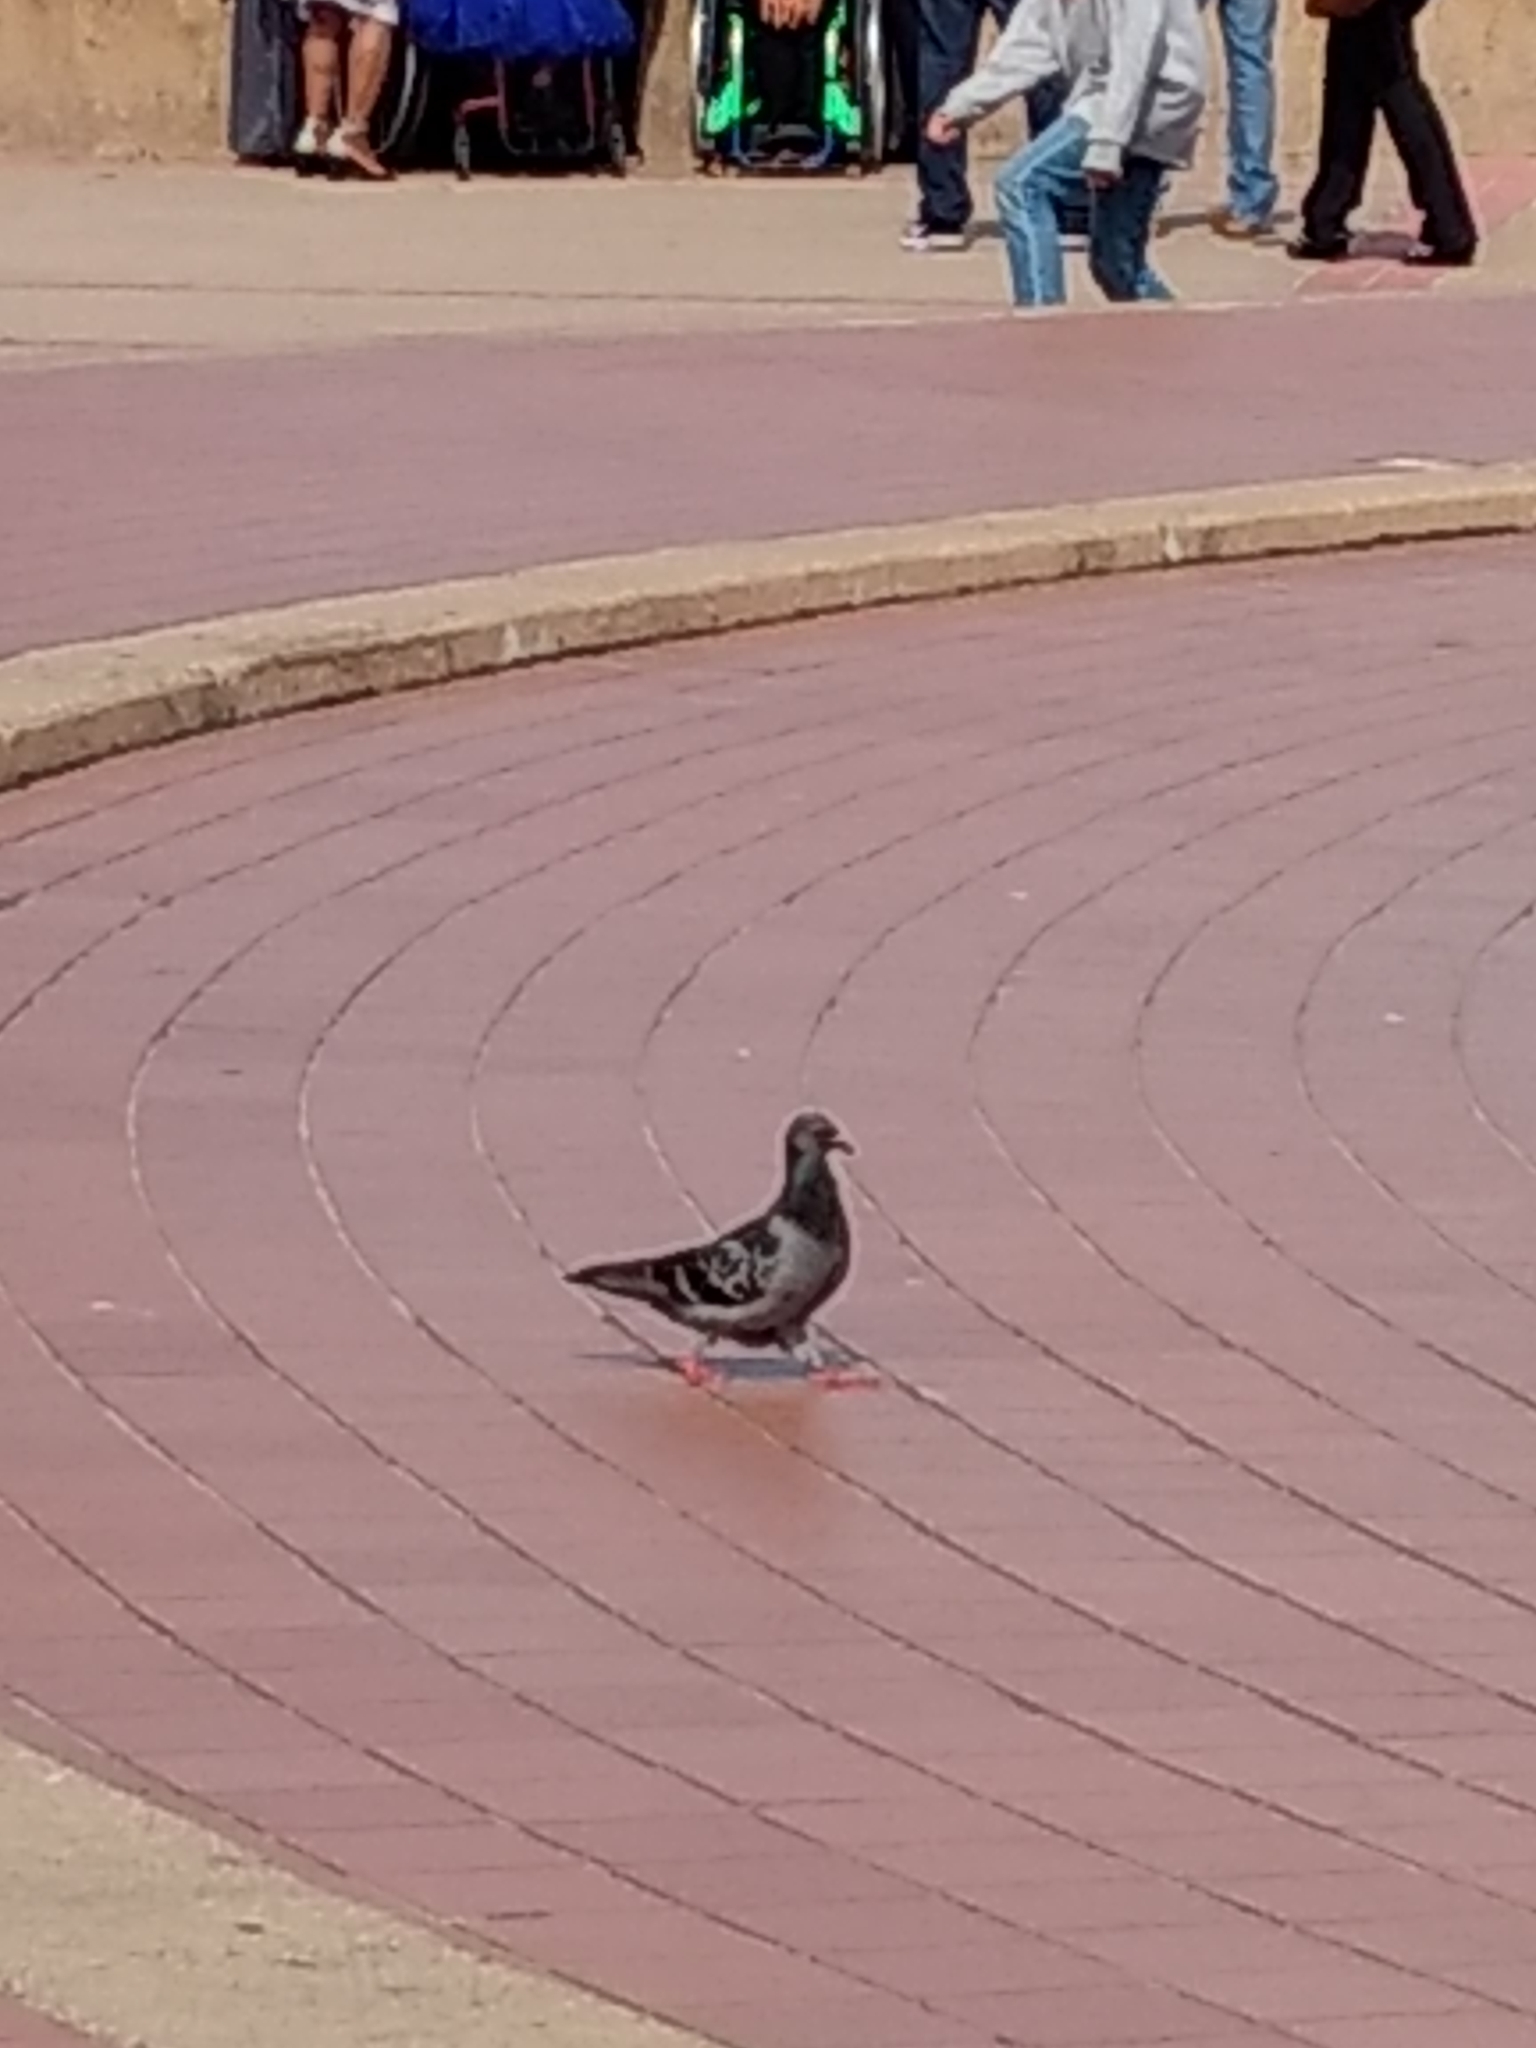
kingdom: Animalia
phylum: Chordata
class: Aves
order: Columbiformes
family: Columbidae
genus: Columba
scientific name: Columba livia
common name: Rock pigeon
